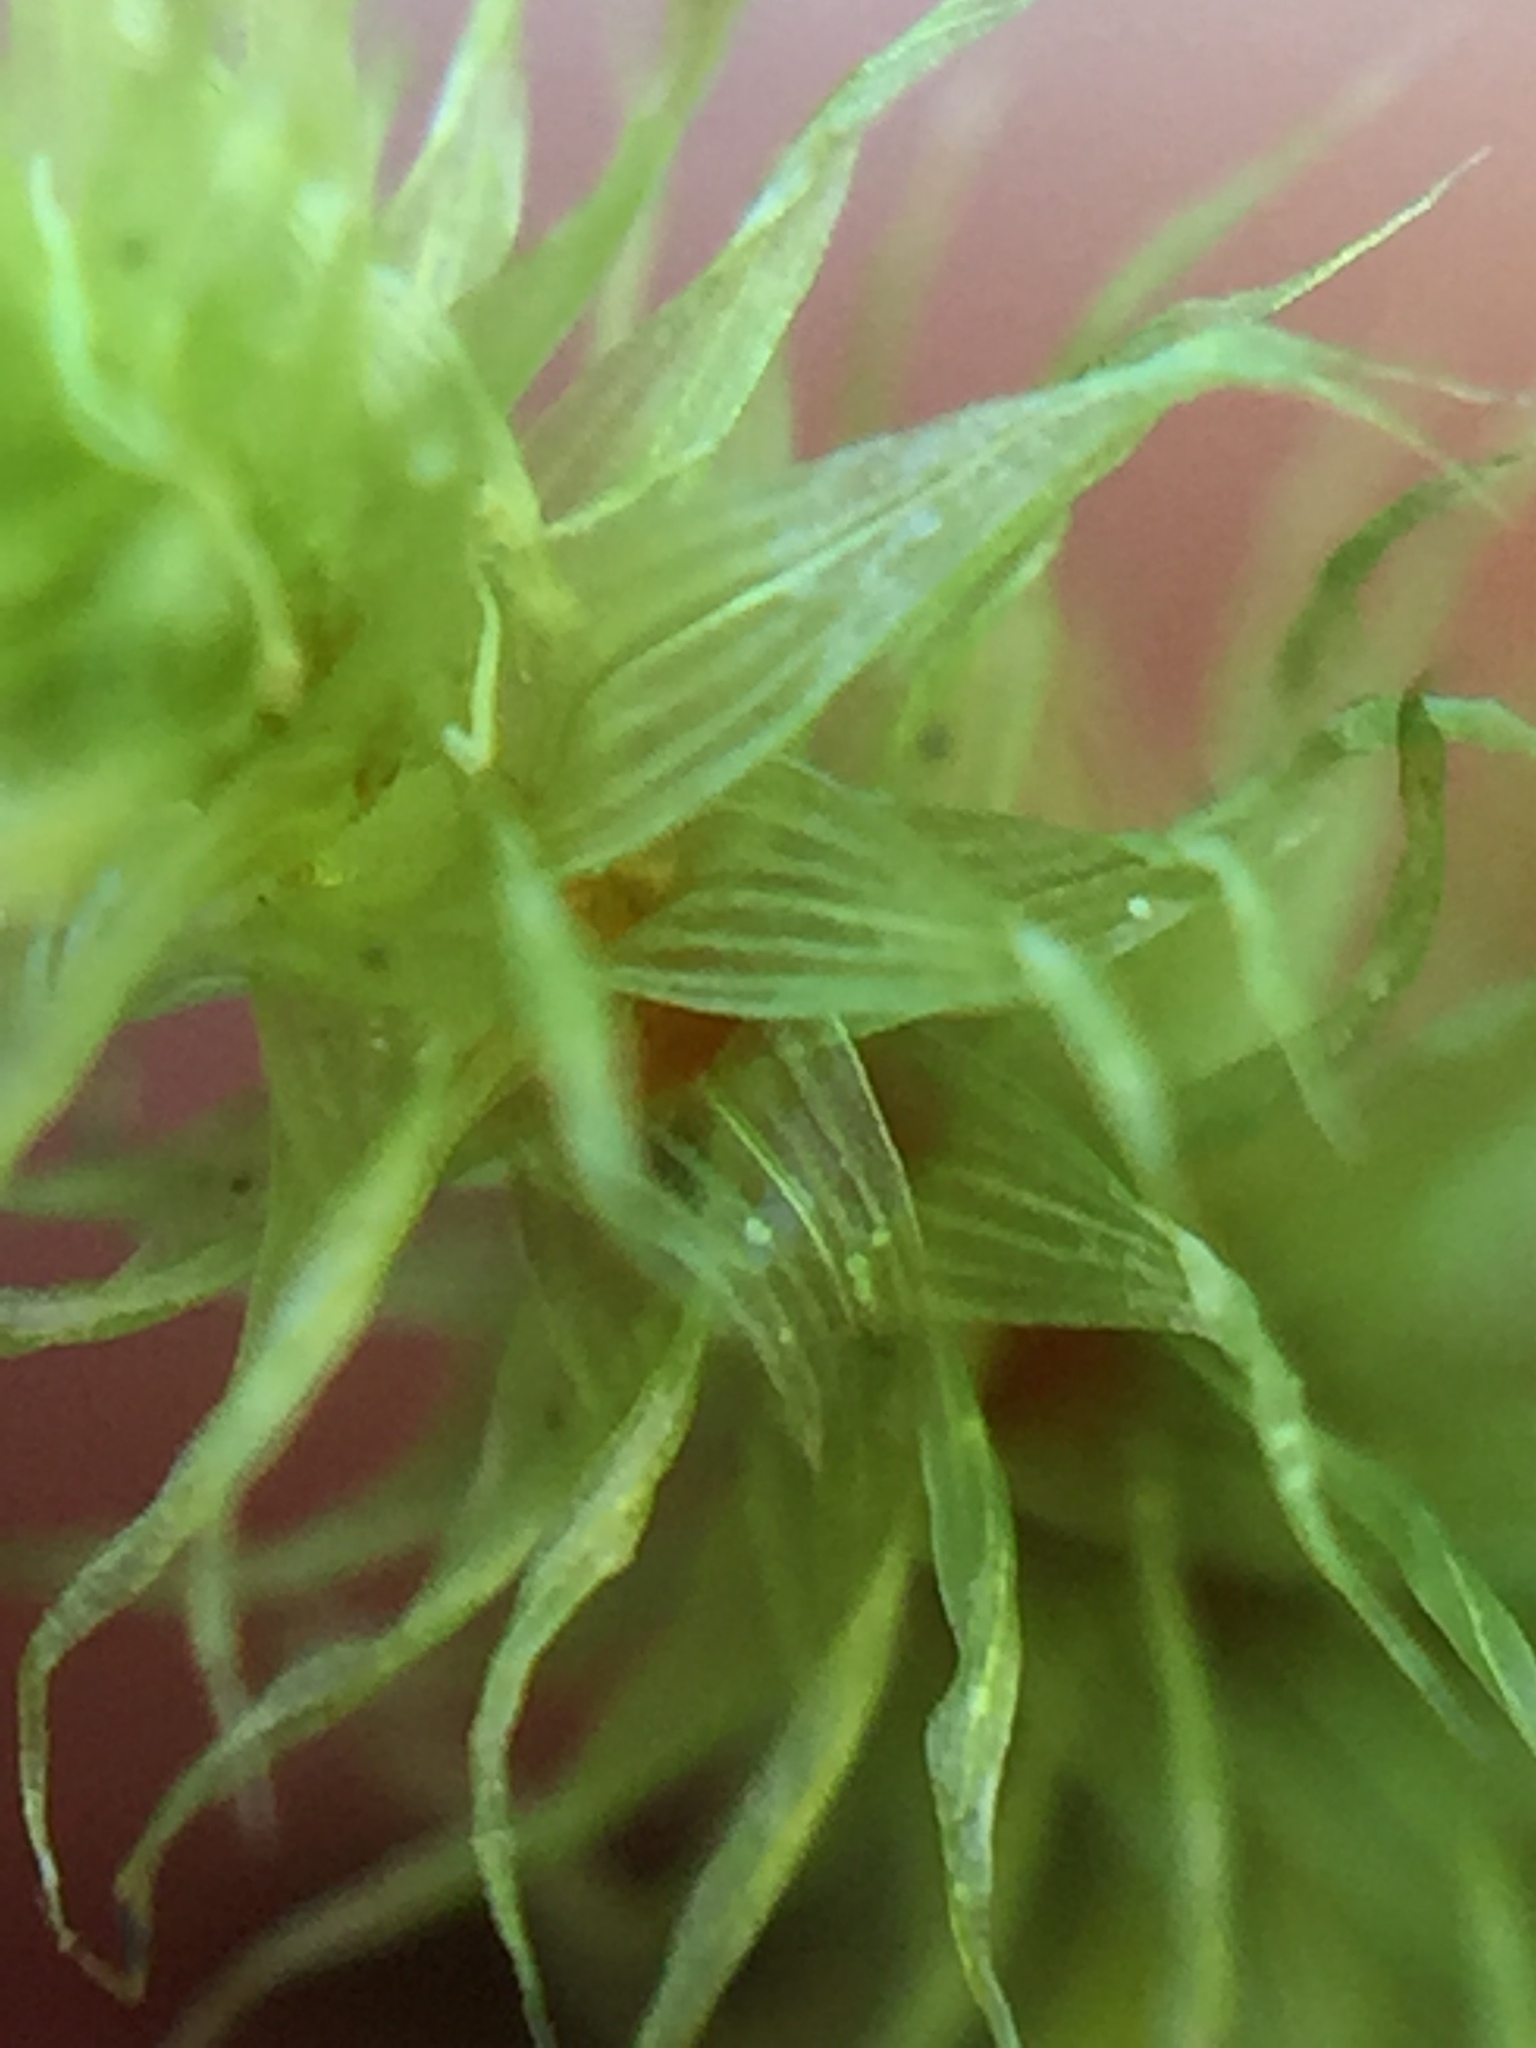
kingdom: Plantae
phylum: Bryophyta
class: Bryopsida
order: Bartramiales
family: Bartramiaceae
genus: Breutelia
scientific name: Breutelia pendula
